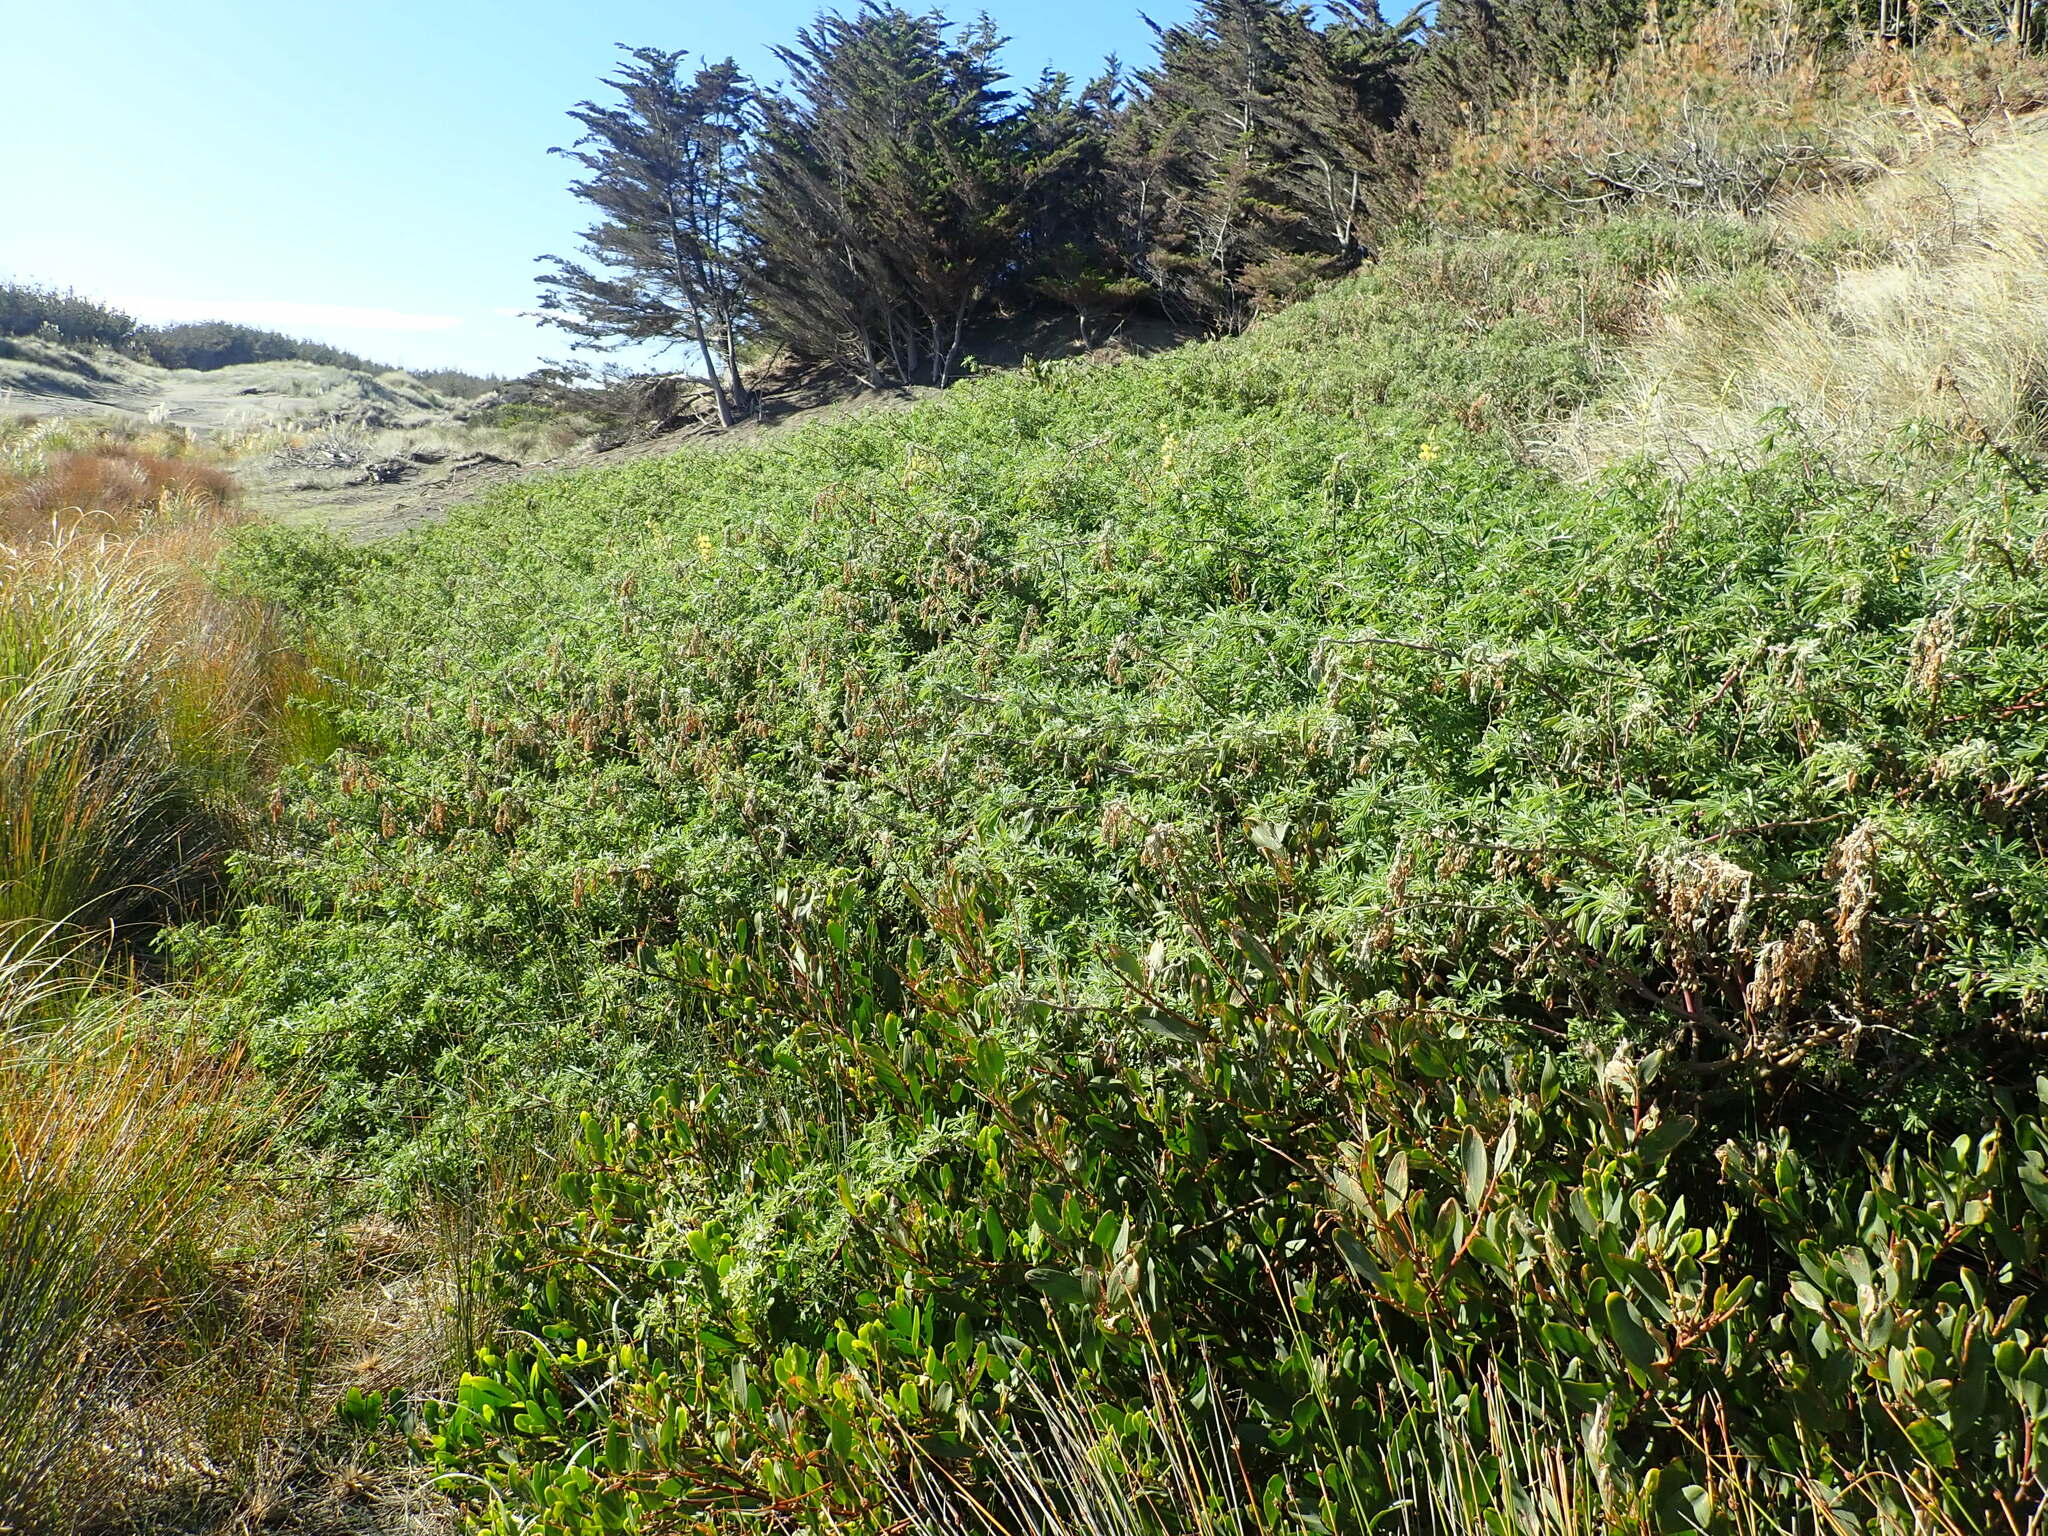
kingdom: Plantae
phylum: Tracheophyta
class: Magnoliopsida
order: Fabales
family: Fabaceae
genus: Lupinus
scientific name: Lupinus arboreus
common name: Yellow bush lupine
